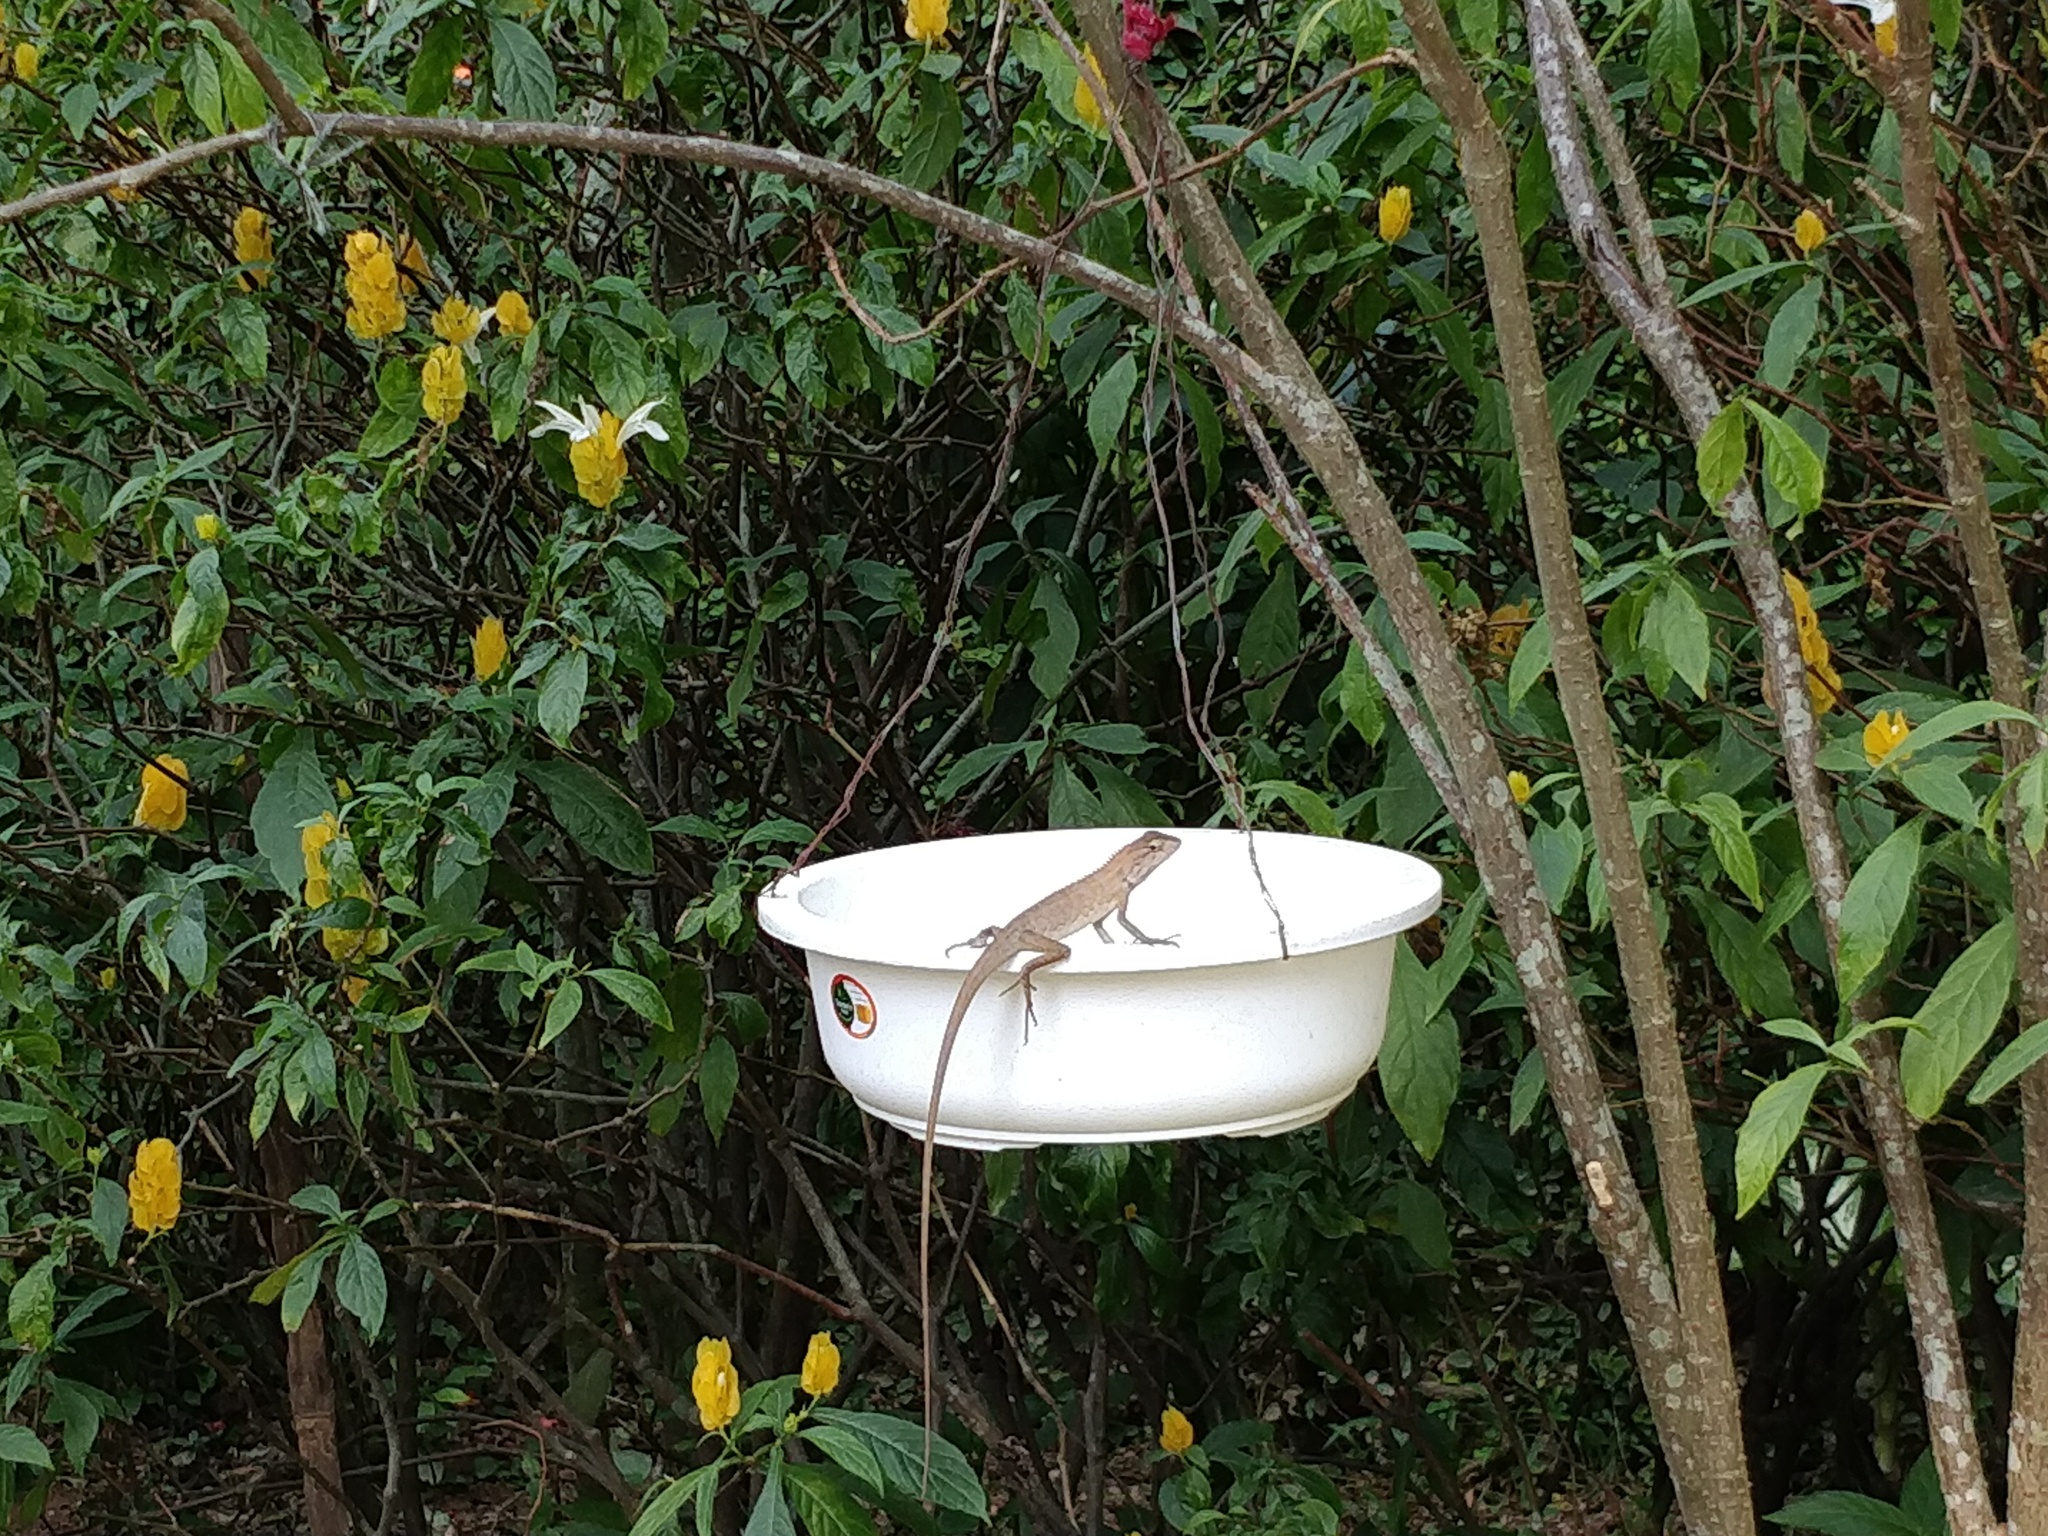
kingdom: Animalia
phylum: Chordata
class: Squamata
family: Agamidae
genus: Calotes
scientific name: Calotes versicolor
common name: Oriental garden lizard
